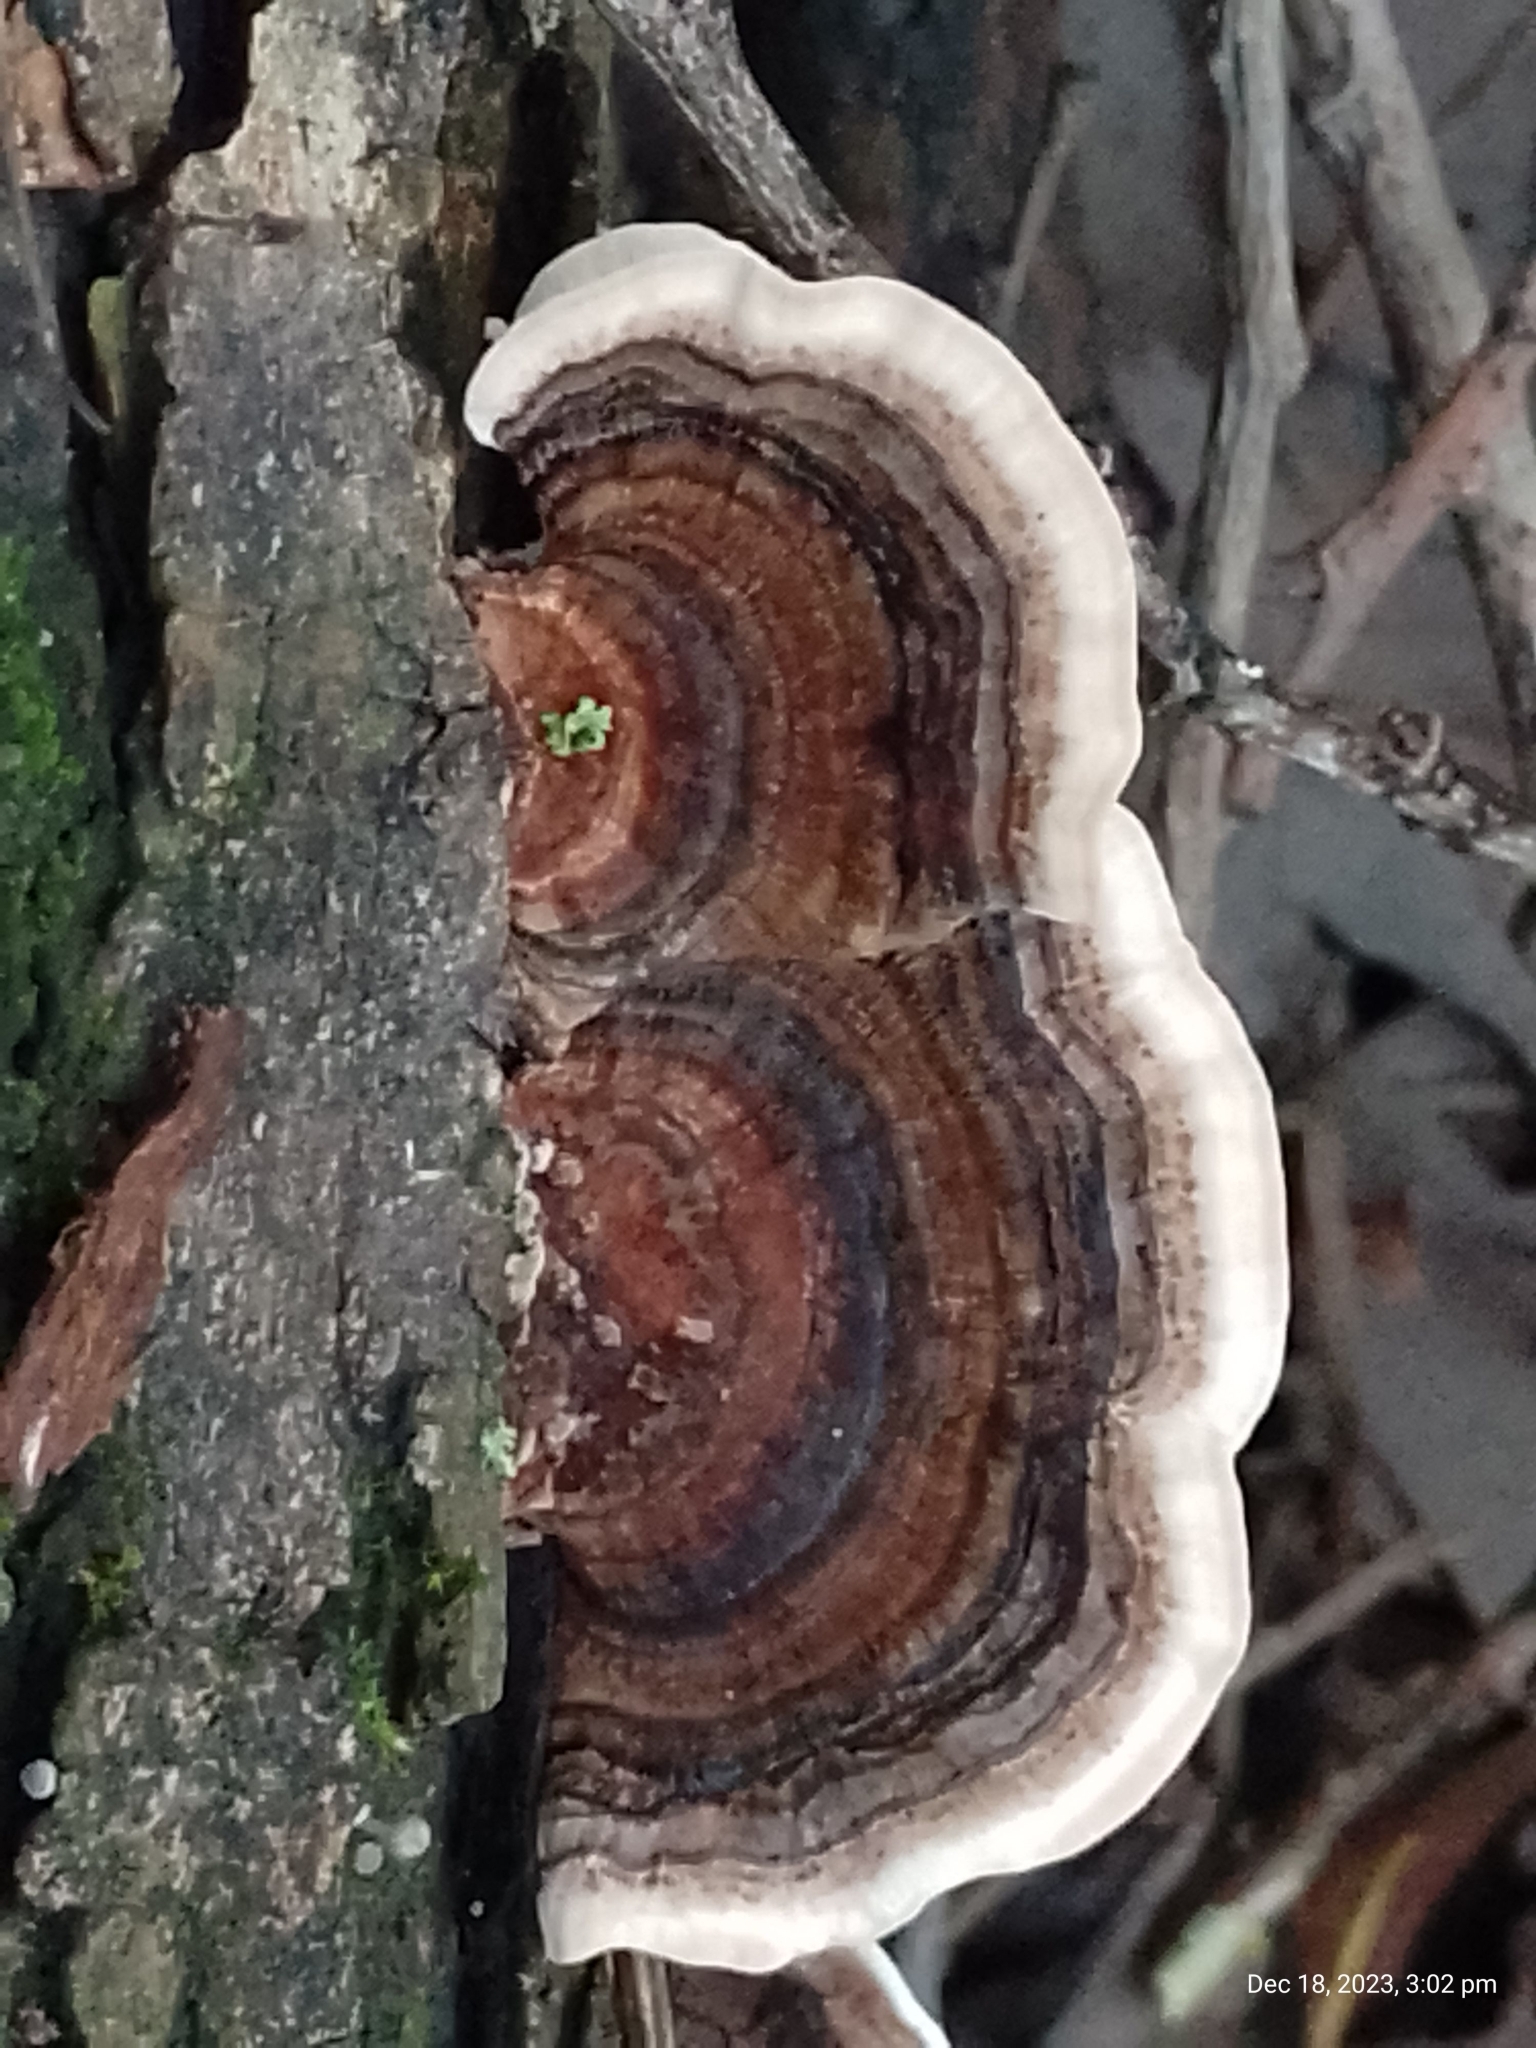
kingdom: Fungi
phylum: Basidiomycota
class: Agaricomycetes
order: Polyporales
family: Polyporaceae
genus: Trametes
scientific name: Trametes versicolor
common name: Turkeytail
